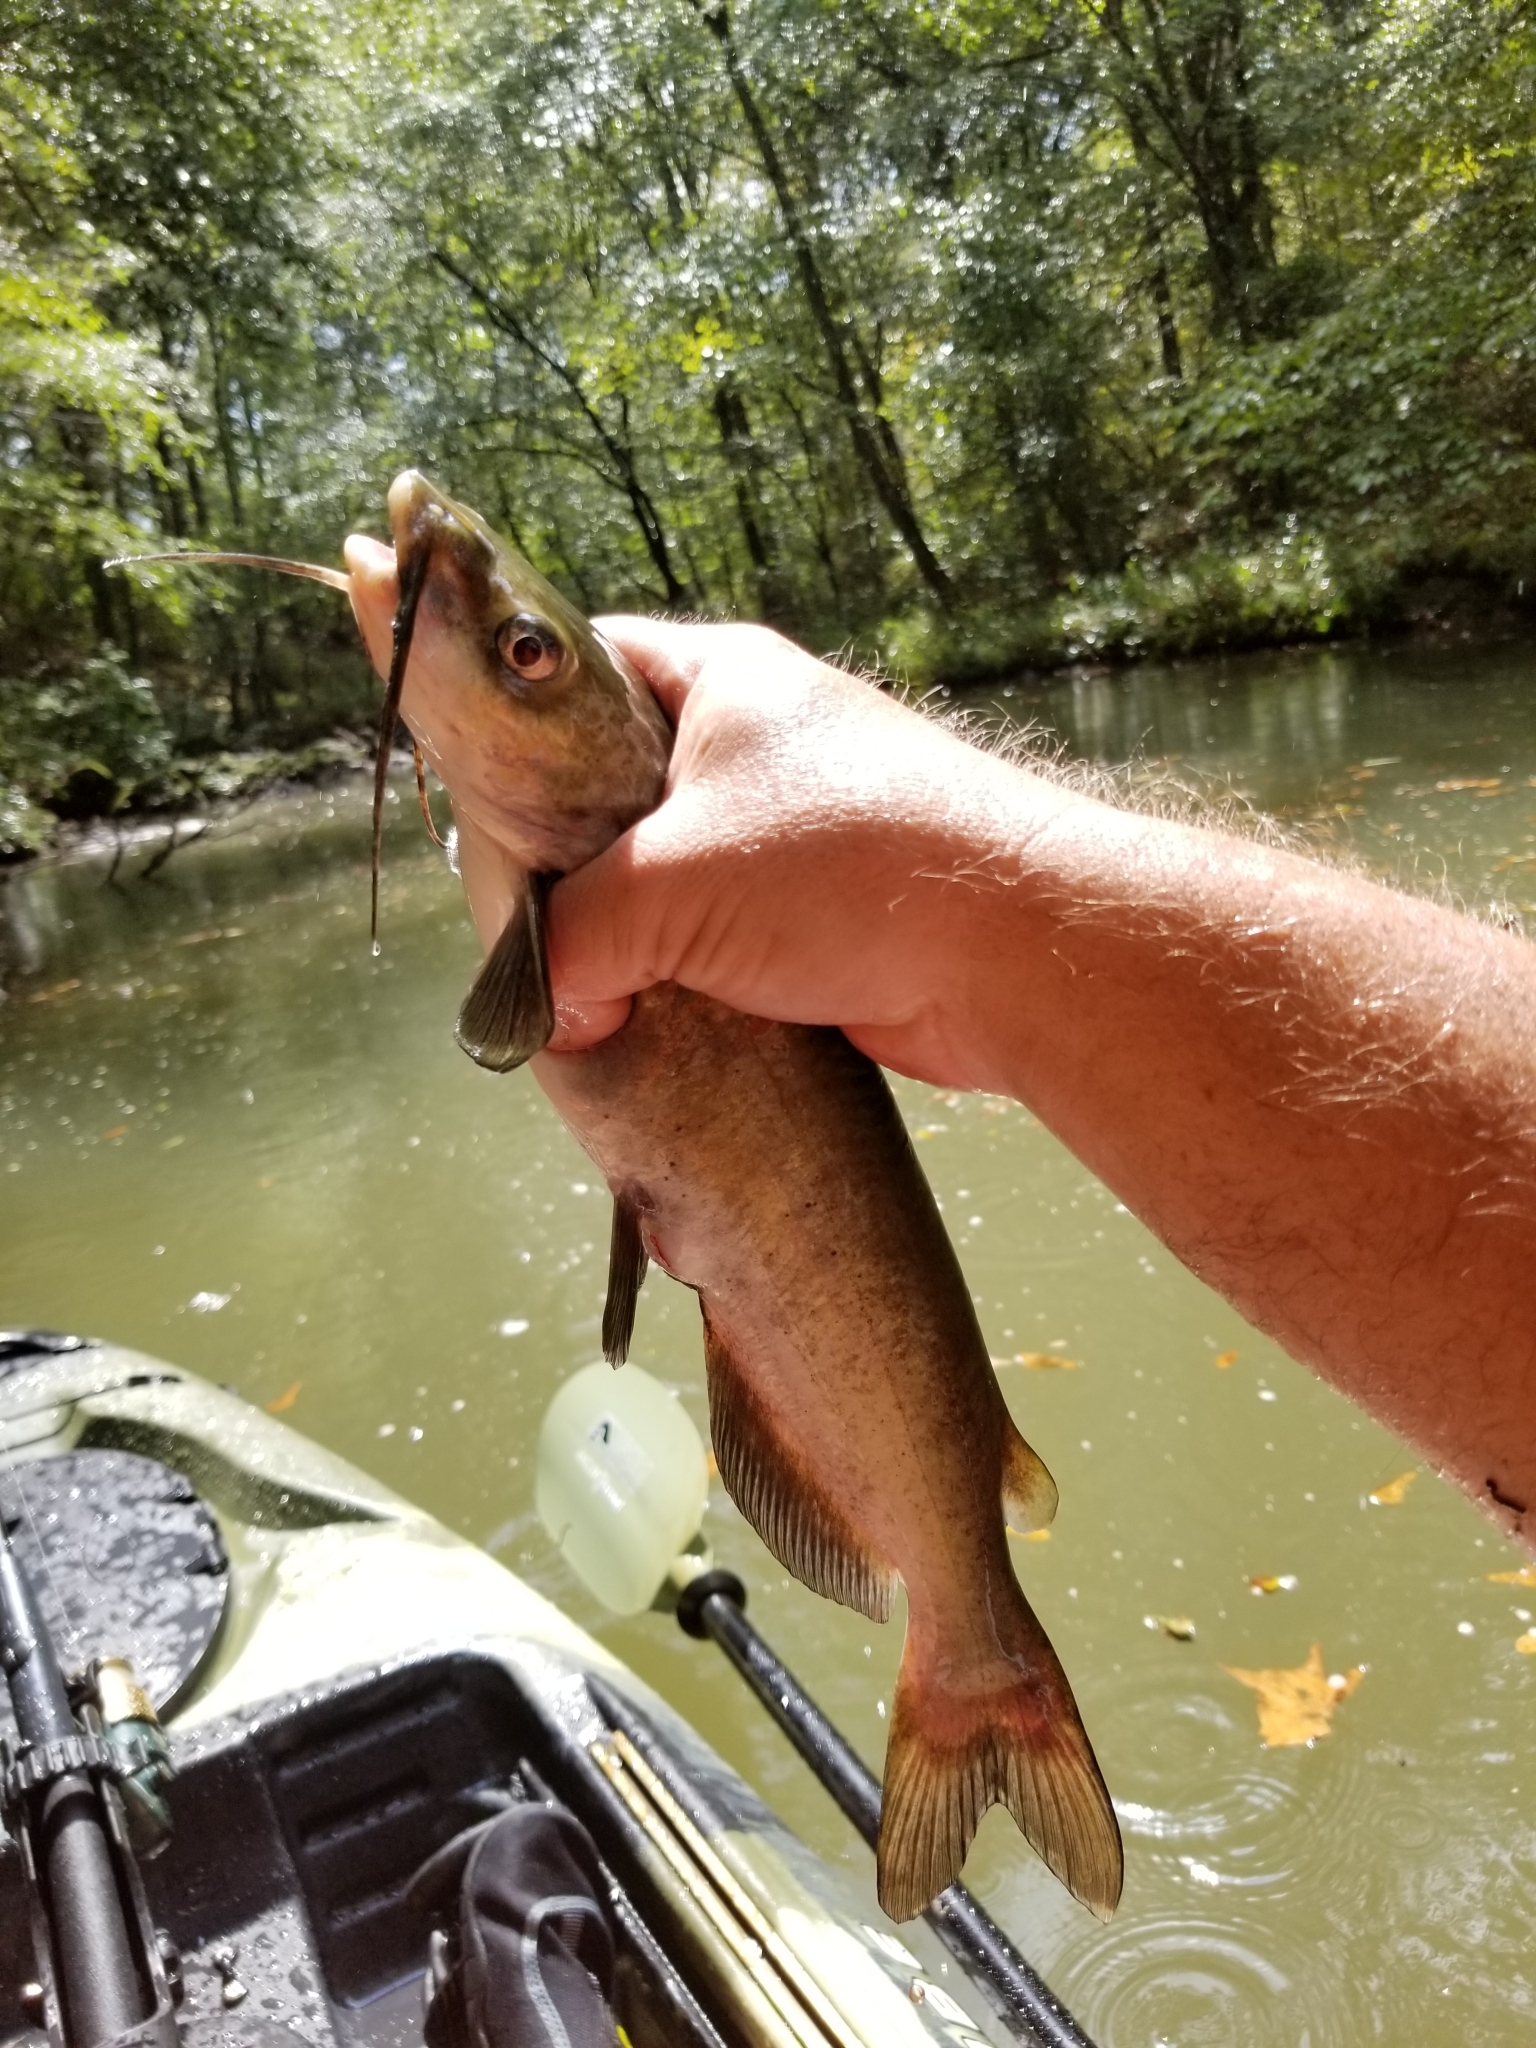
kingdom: Animalia
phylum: Chordata
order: Siluriformes
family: Ictaluridae
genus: Ictalurus
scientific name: Ictalurus punctatus
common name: Channel catfish
